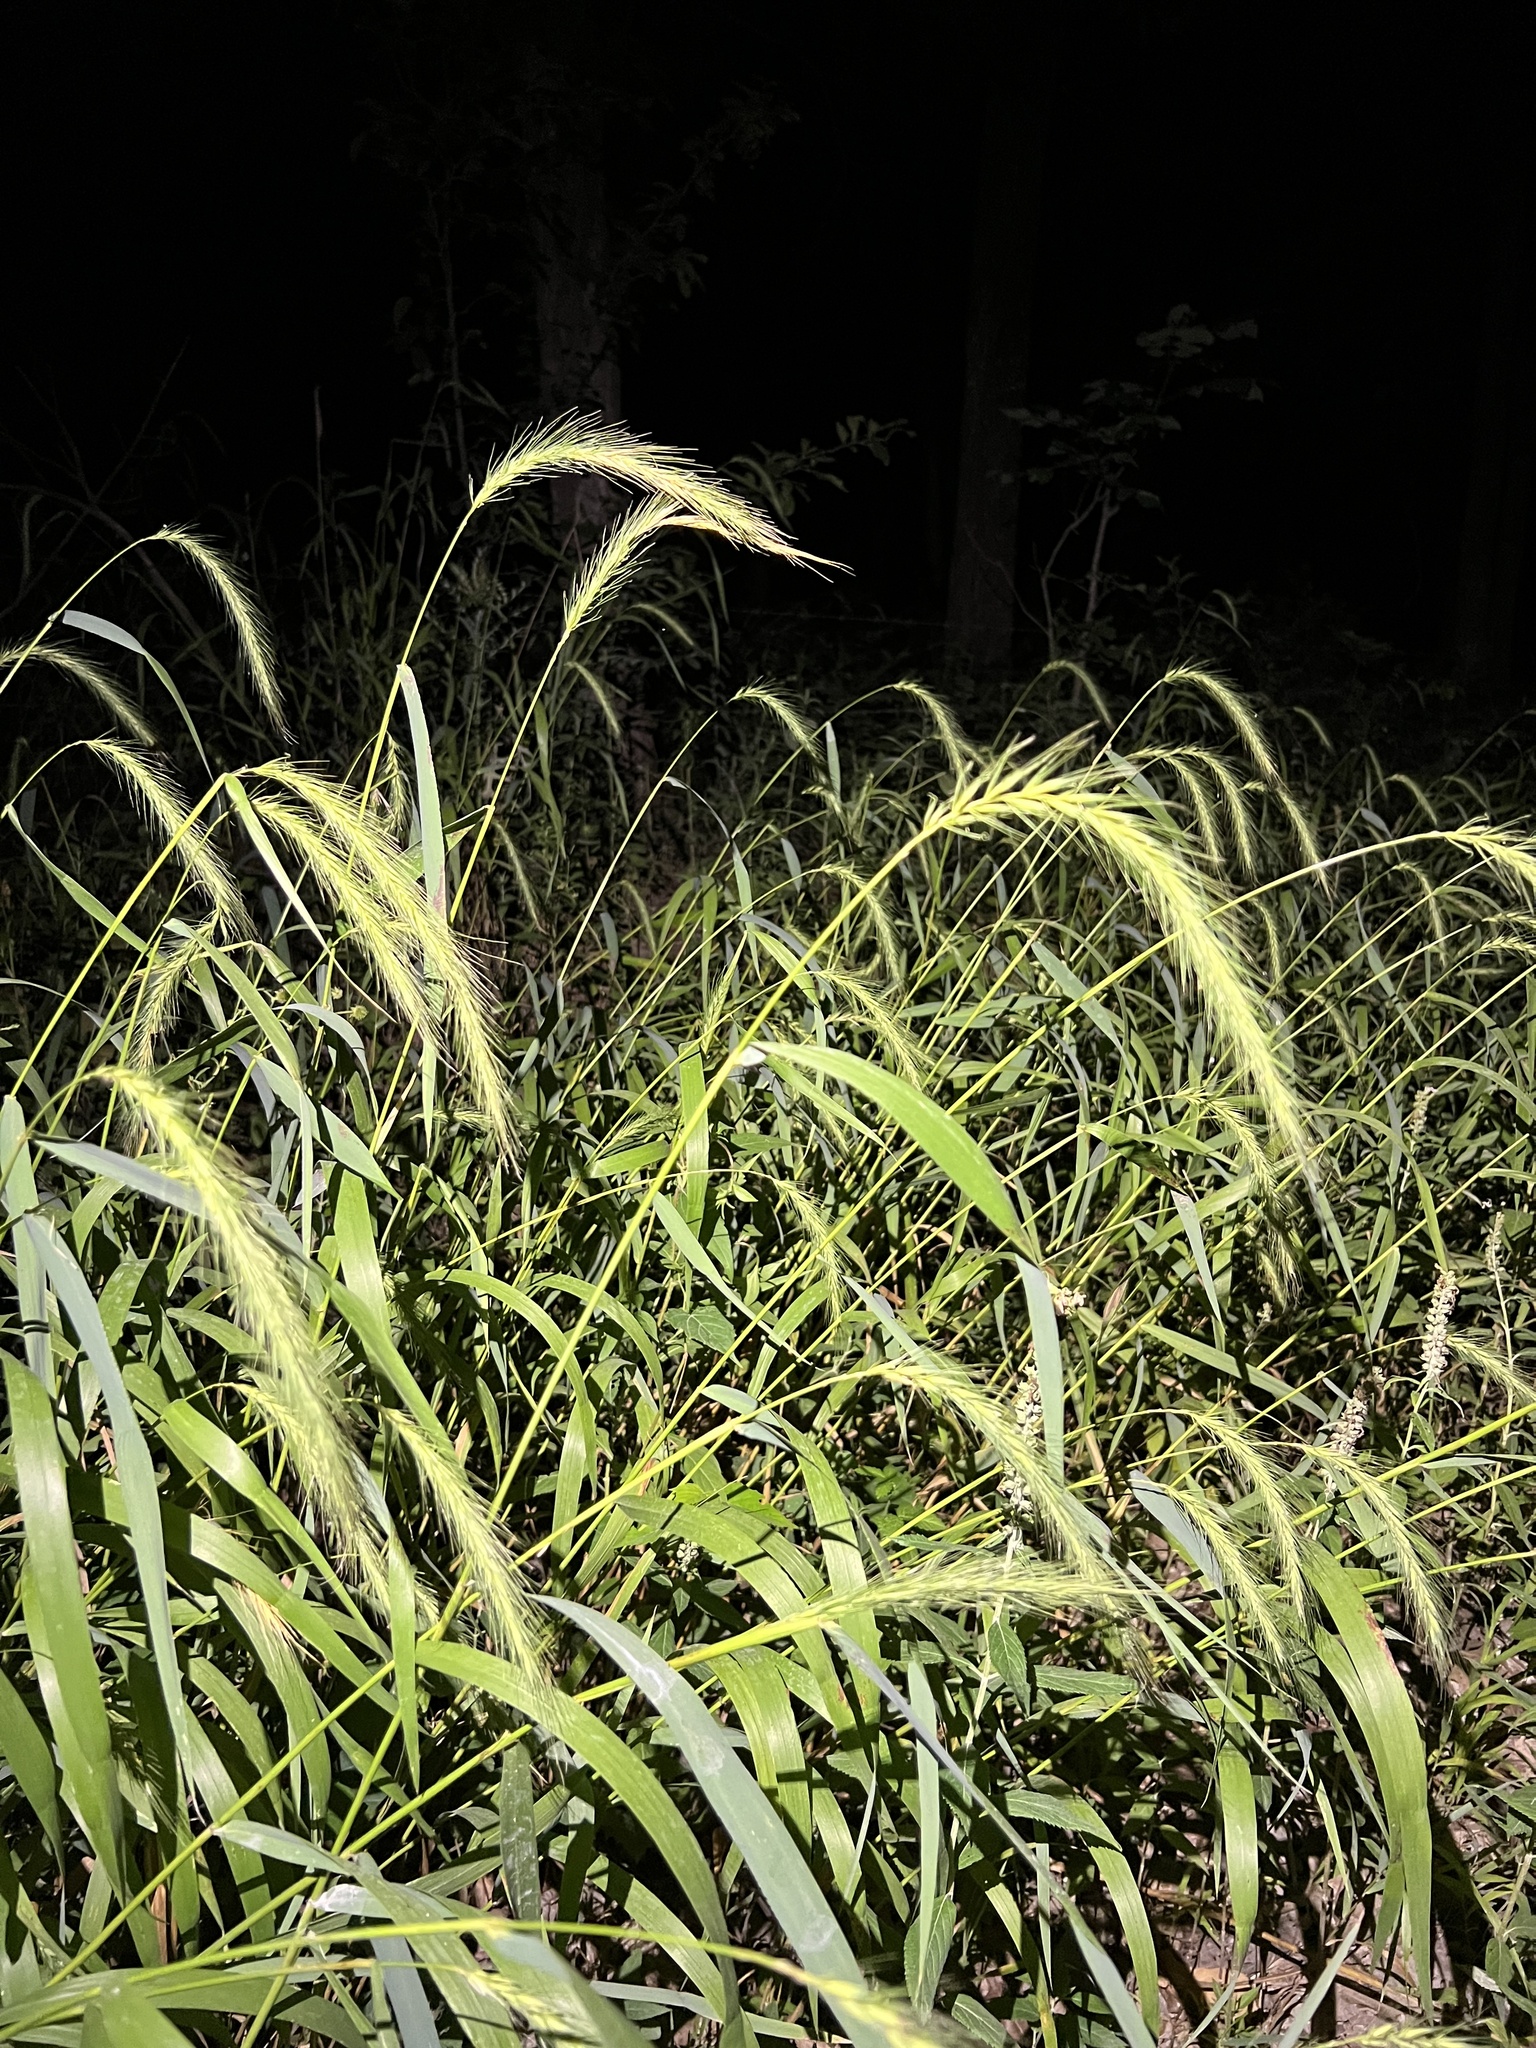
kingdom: Plantae
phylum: Tracheophyta
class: Liliopsida
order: Poales
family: Poaceae
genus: Elymus
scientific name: Elymus riparius
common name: Eastern riverbank wild rye
